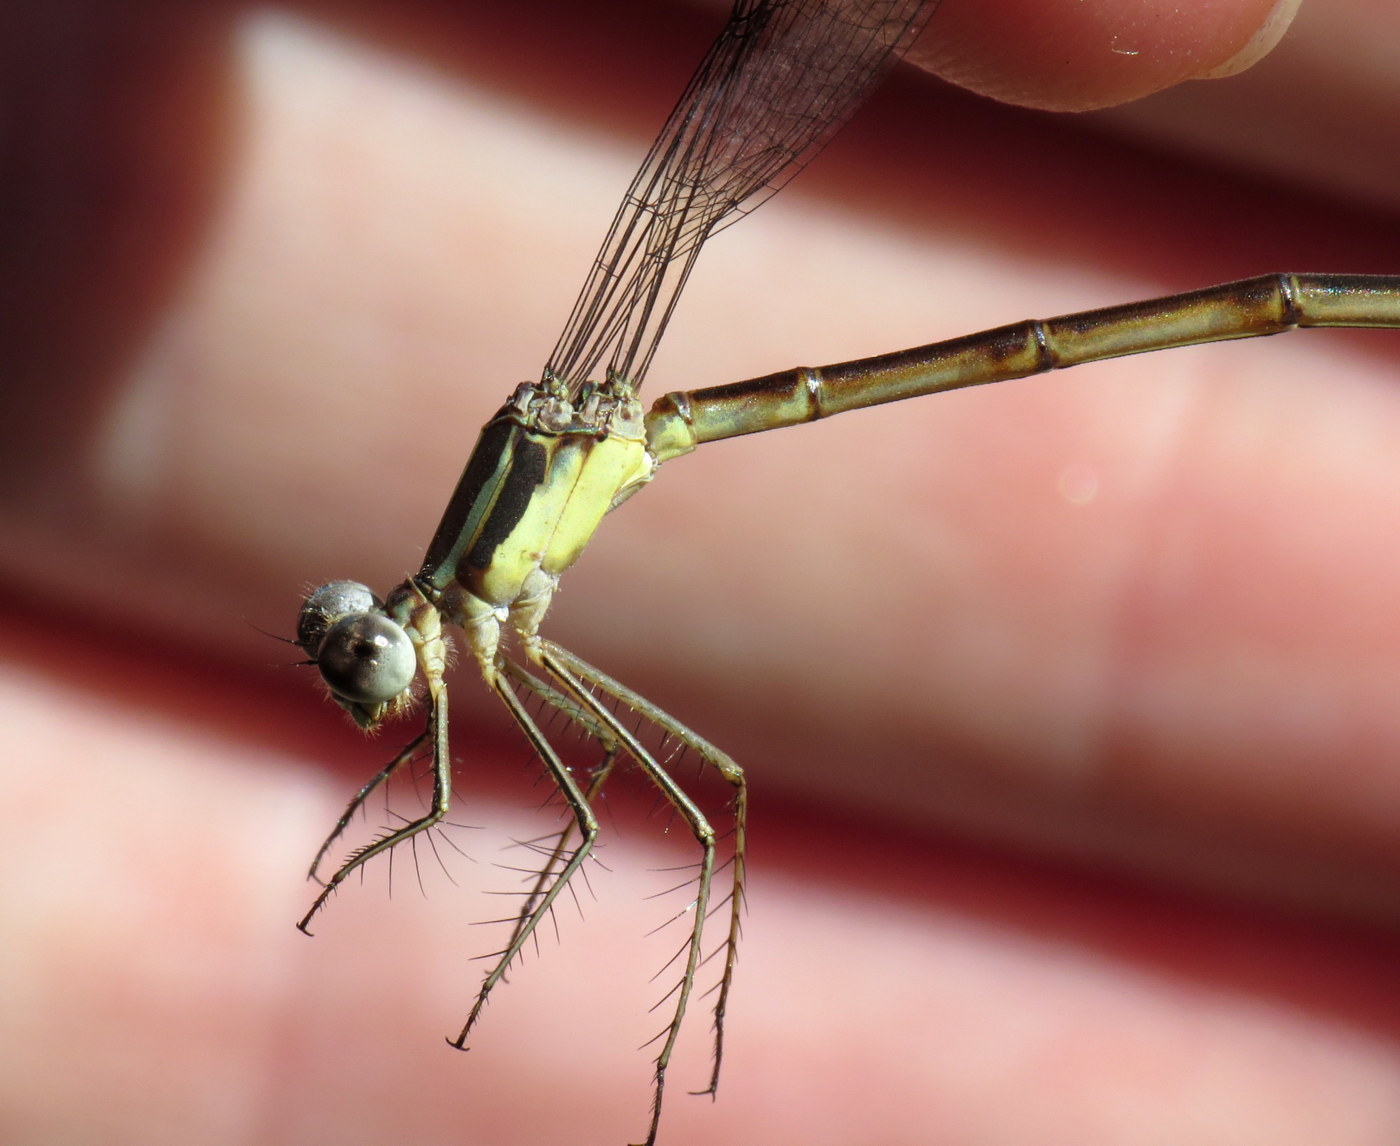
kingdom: Animalia
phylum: Arthropoda
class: Insecta
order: Odonata
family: Lestidae
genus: Lestes
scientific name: Lestes rectangularis
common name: Slender spreadwing
